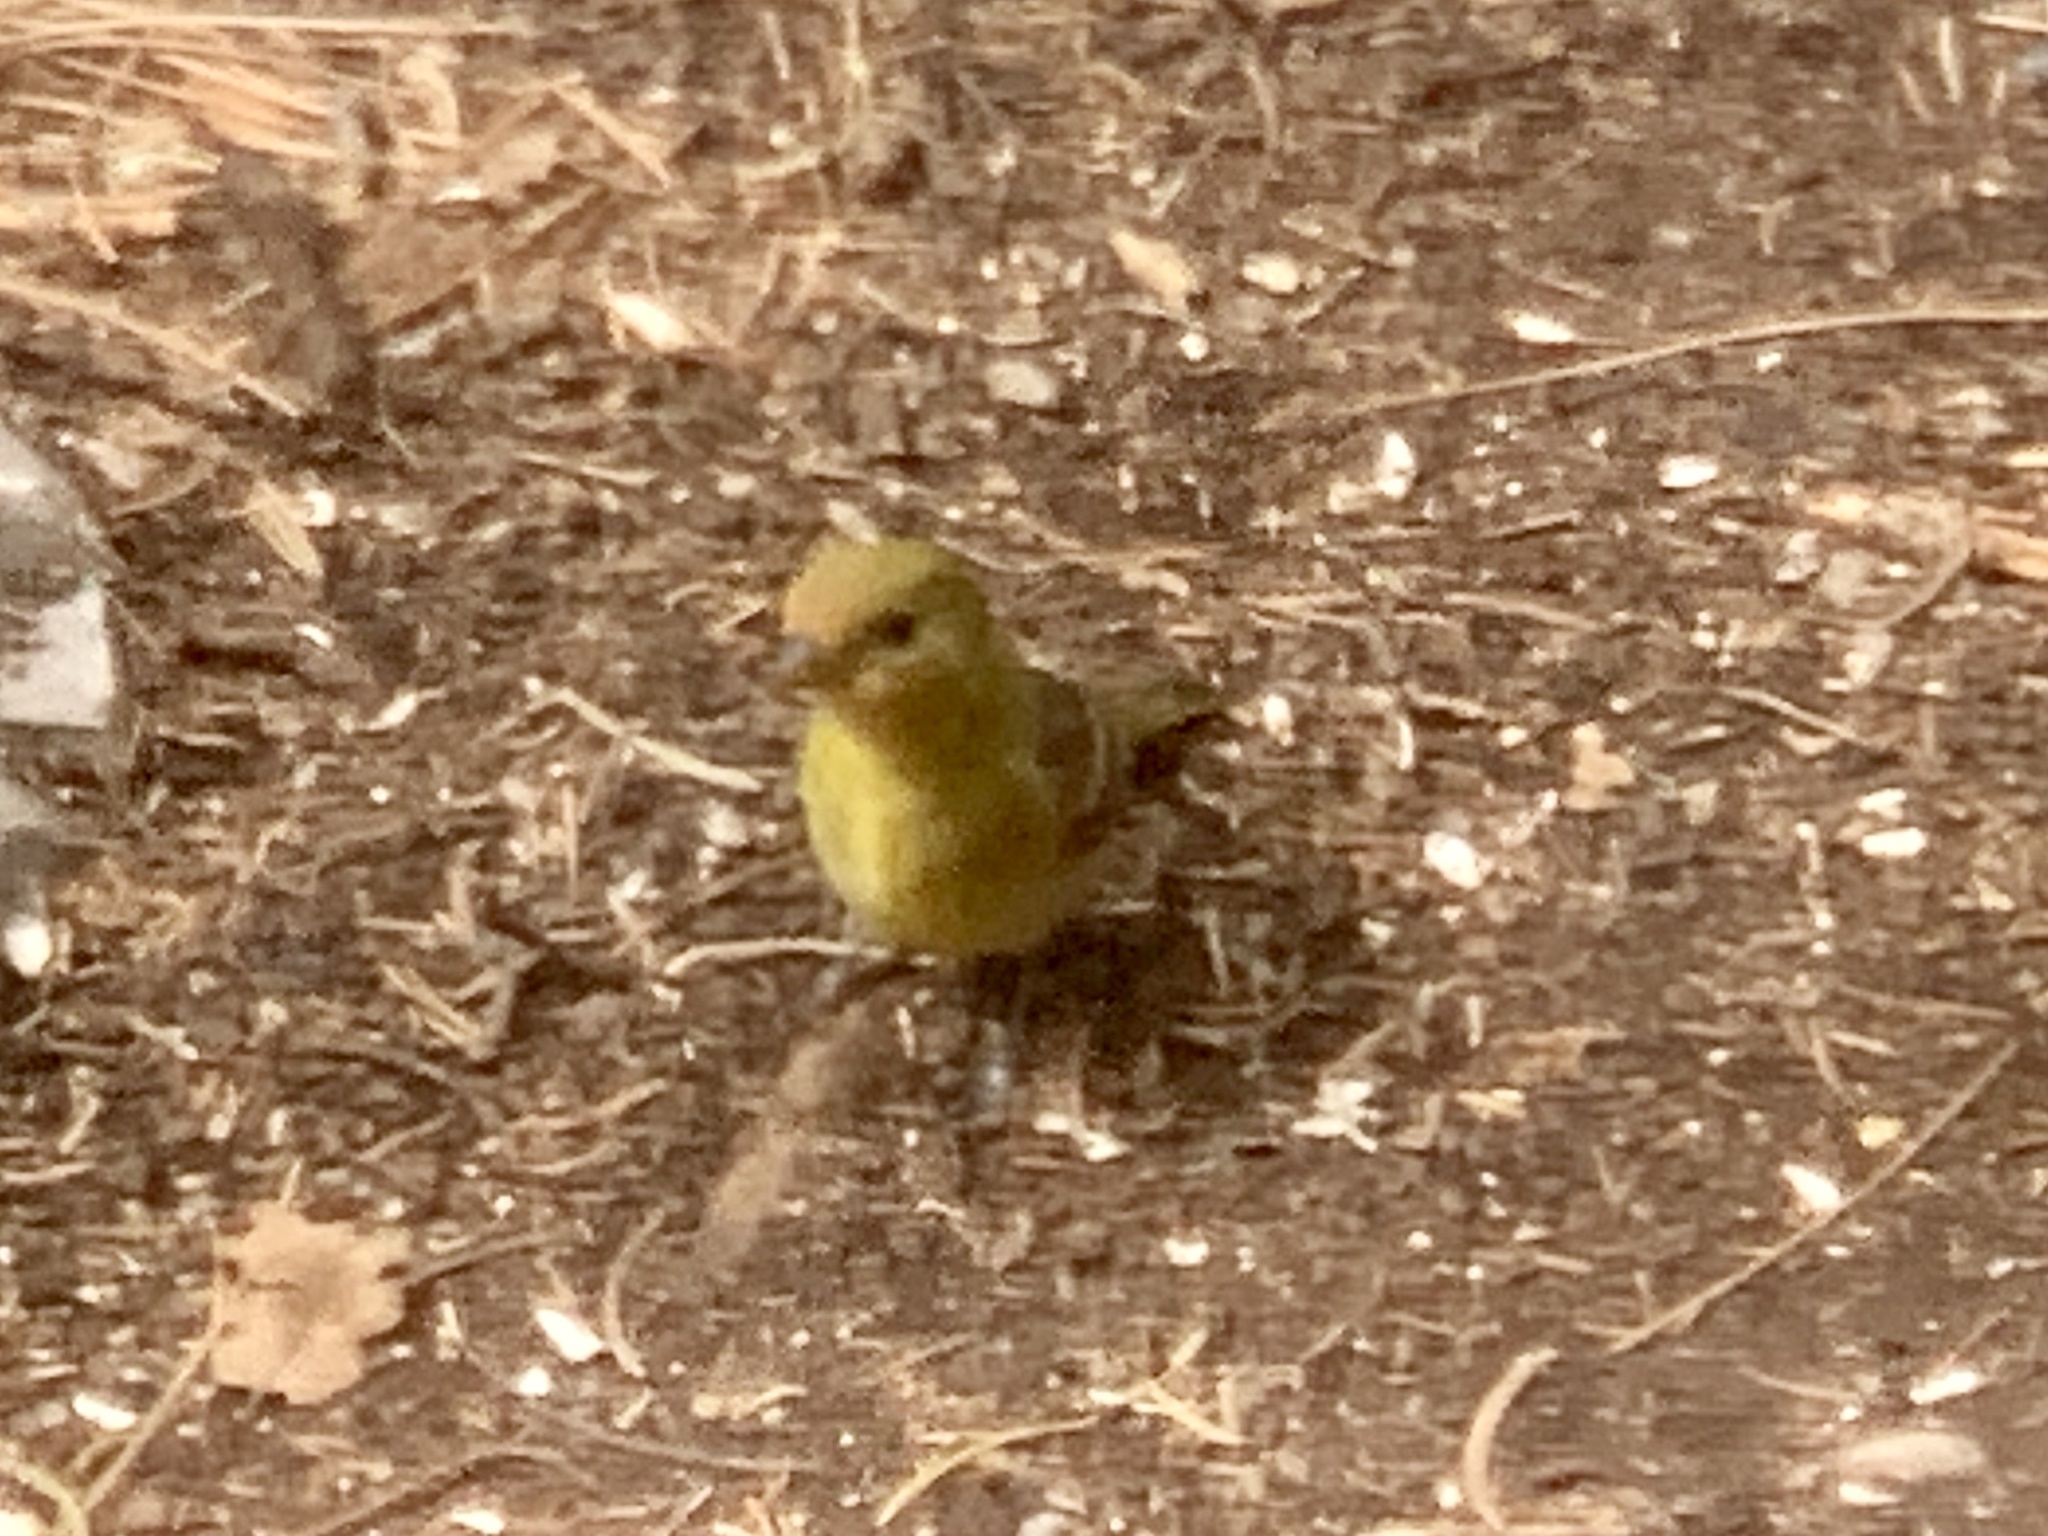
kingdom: Animalia
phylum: Chordata
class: Aves
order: Passeriformes
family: Cardinalidae
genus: Piranga
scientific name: Piranga ludoviciana
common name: Western tanager
